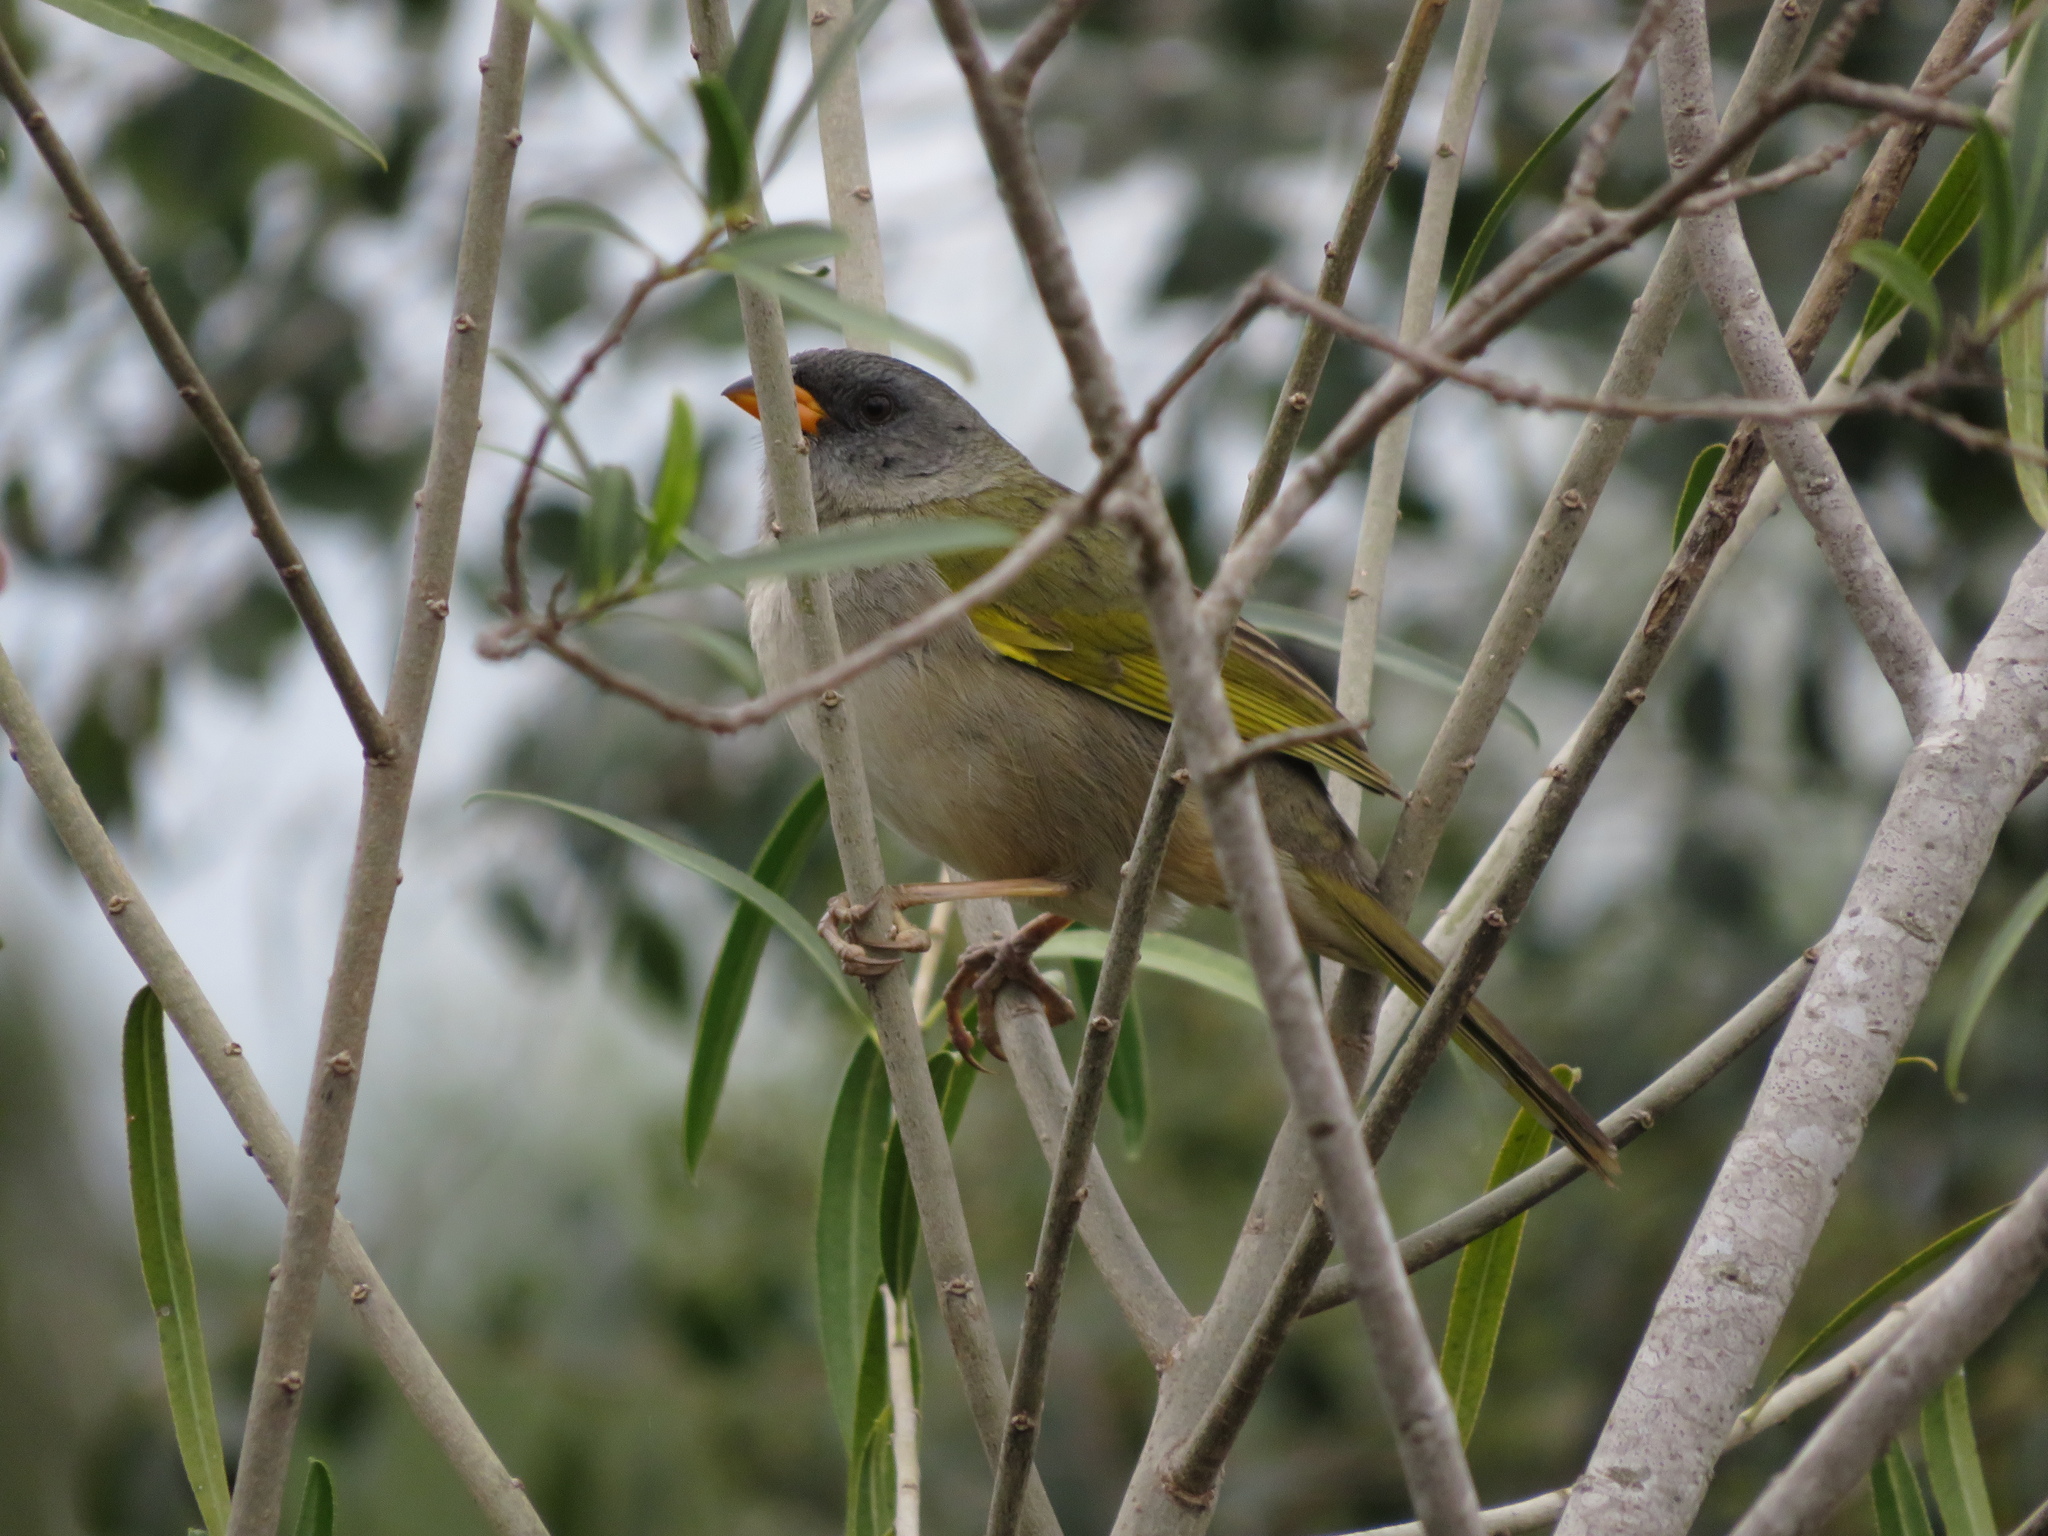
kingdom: Animalia
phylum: Chordata
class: Aves
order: Passeriformes
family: Thraupidae
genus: Embernagra
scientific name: Embernagra platensis
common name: Pampa finch
